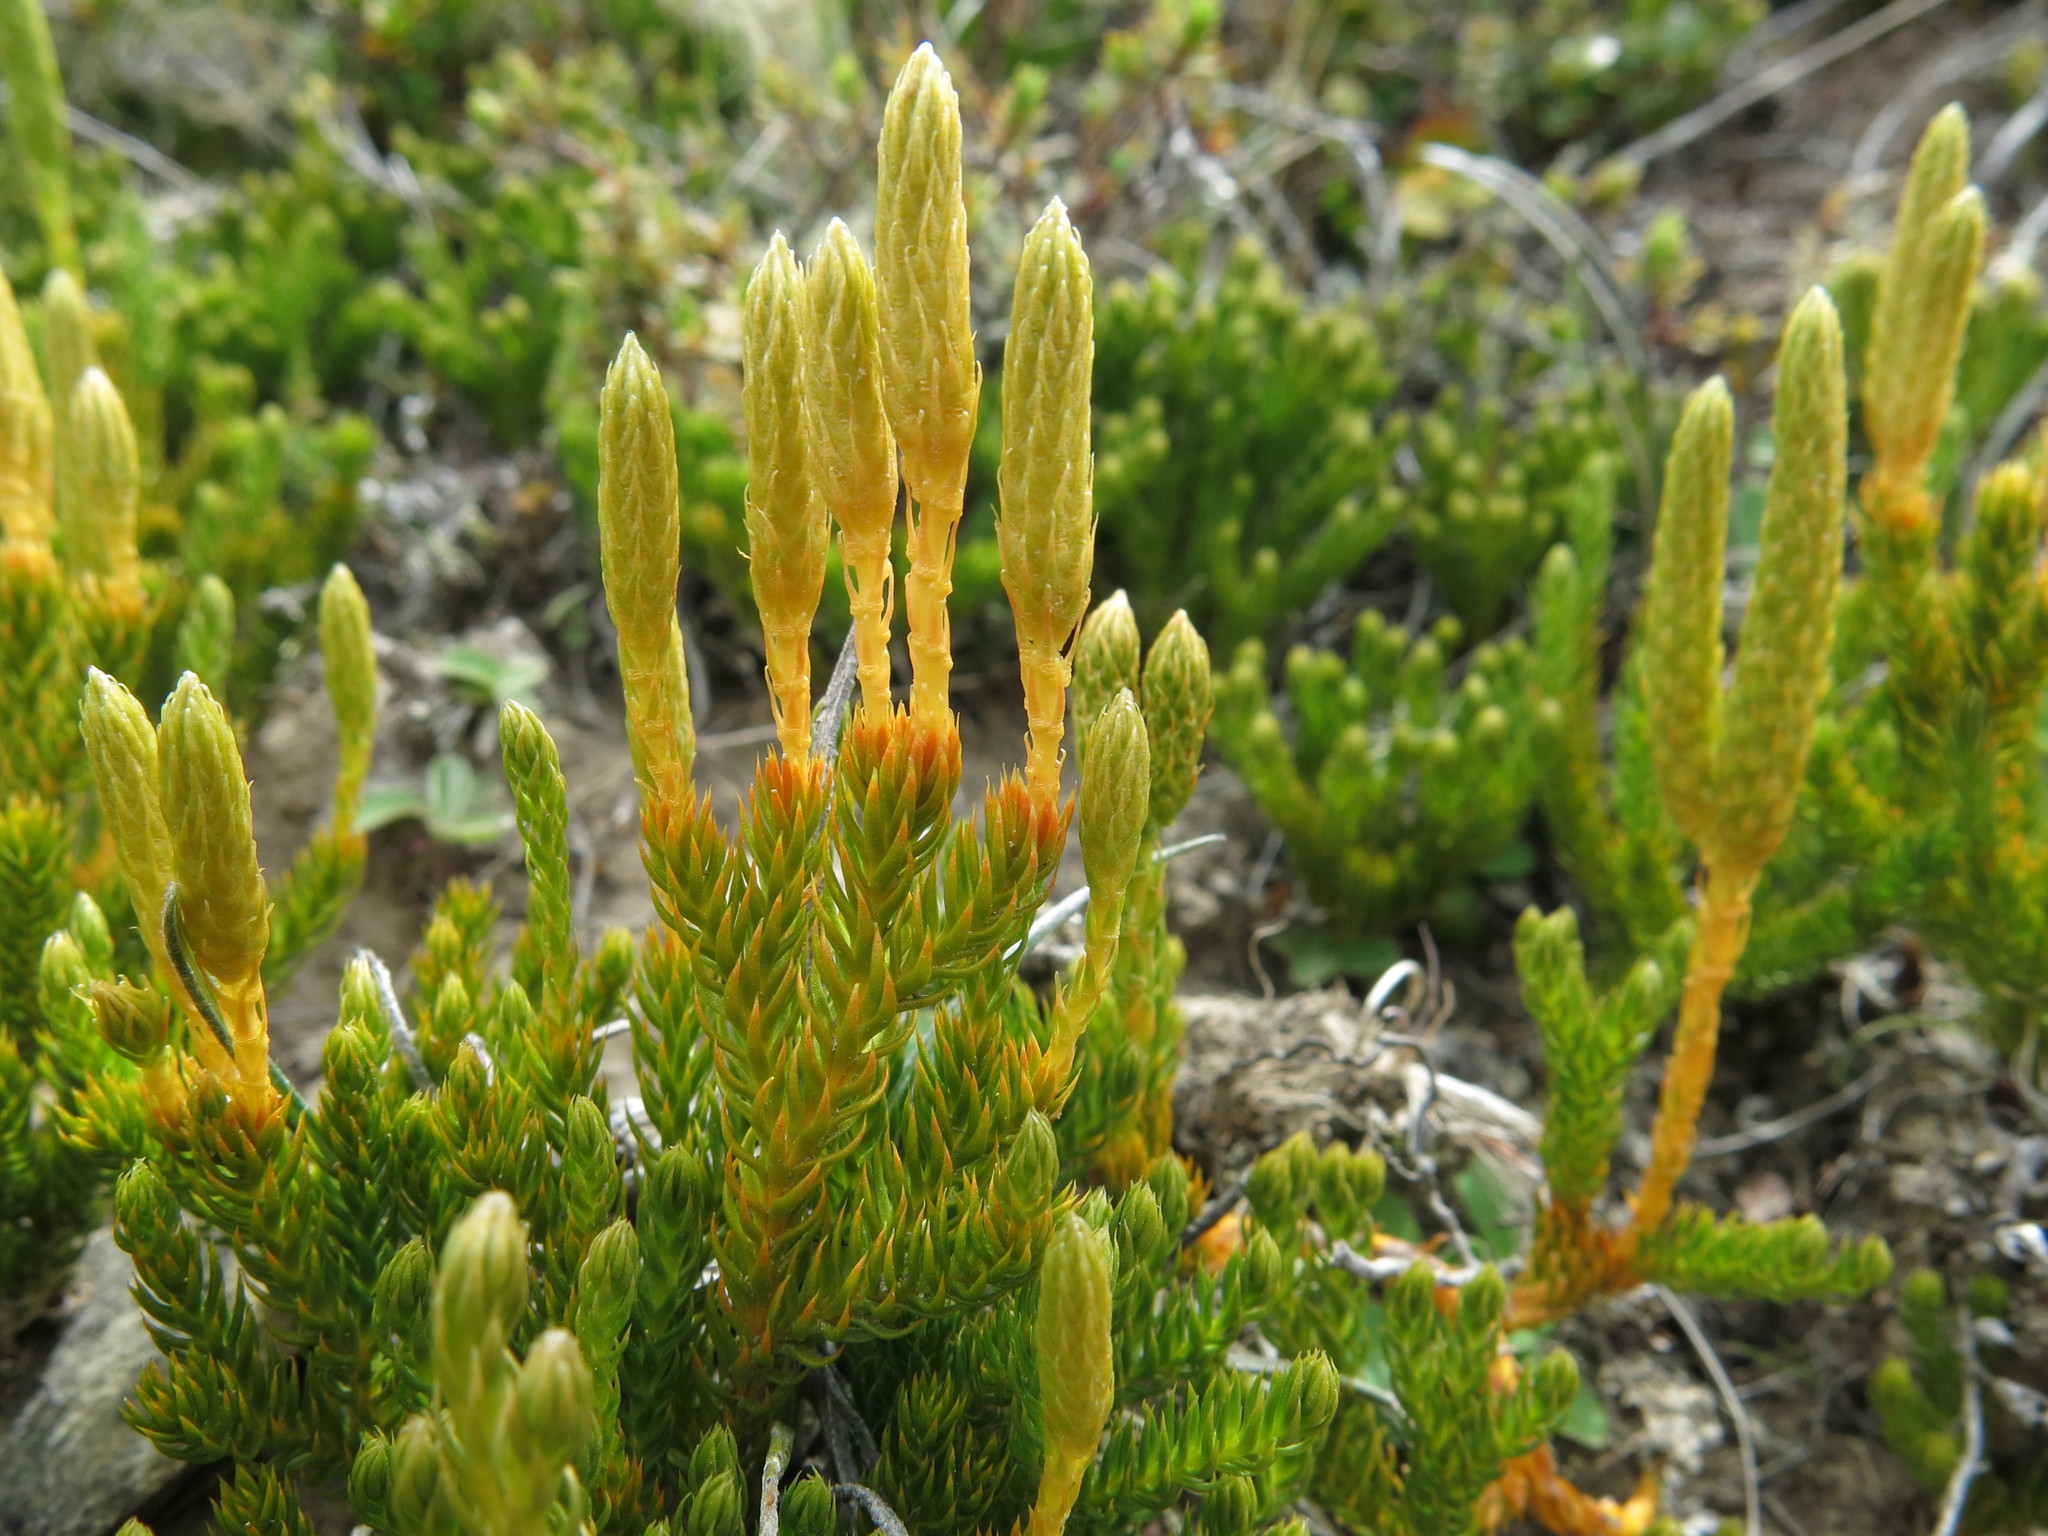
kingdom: Plantae
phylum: Tracheophyta
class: Lycopodiopsida
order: Lycopodiales
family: Lycopodiaceae
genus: Austrolycopodium
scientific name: Austrolycopodium fastigiatum
